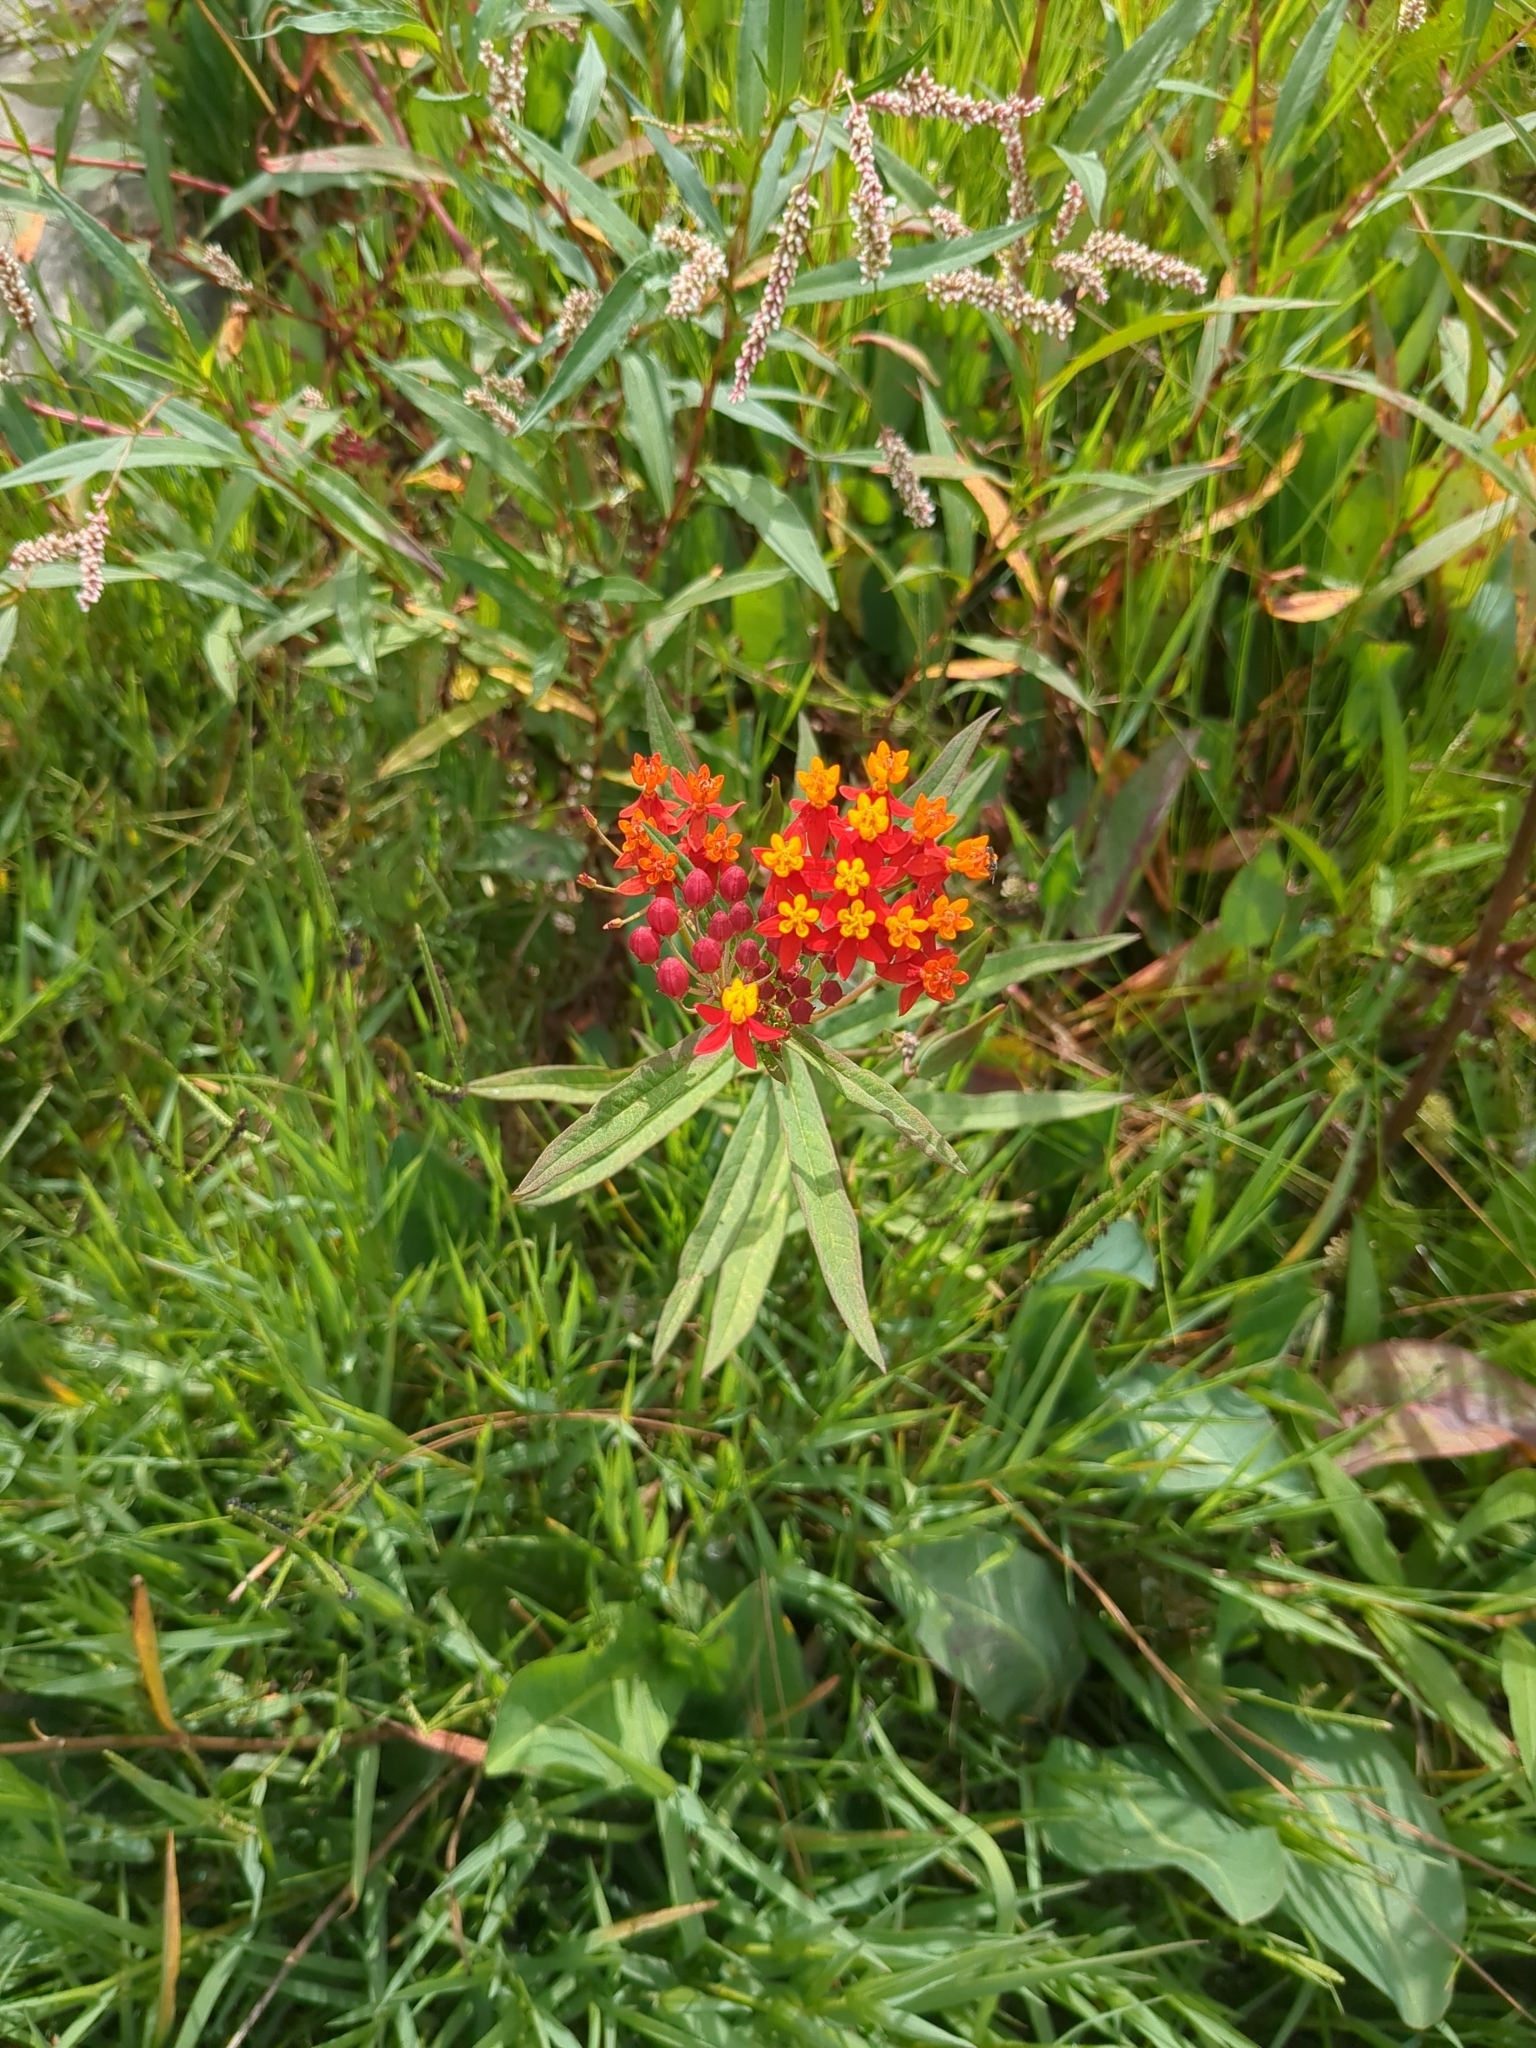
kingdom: Plantae
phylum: Tracheophyta
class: Magnoliopsida
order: Gentianales
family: Apocynaceae
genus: Asclepias
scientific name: Asclepias curassavica
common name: Bloodflower
